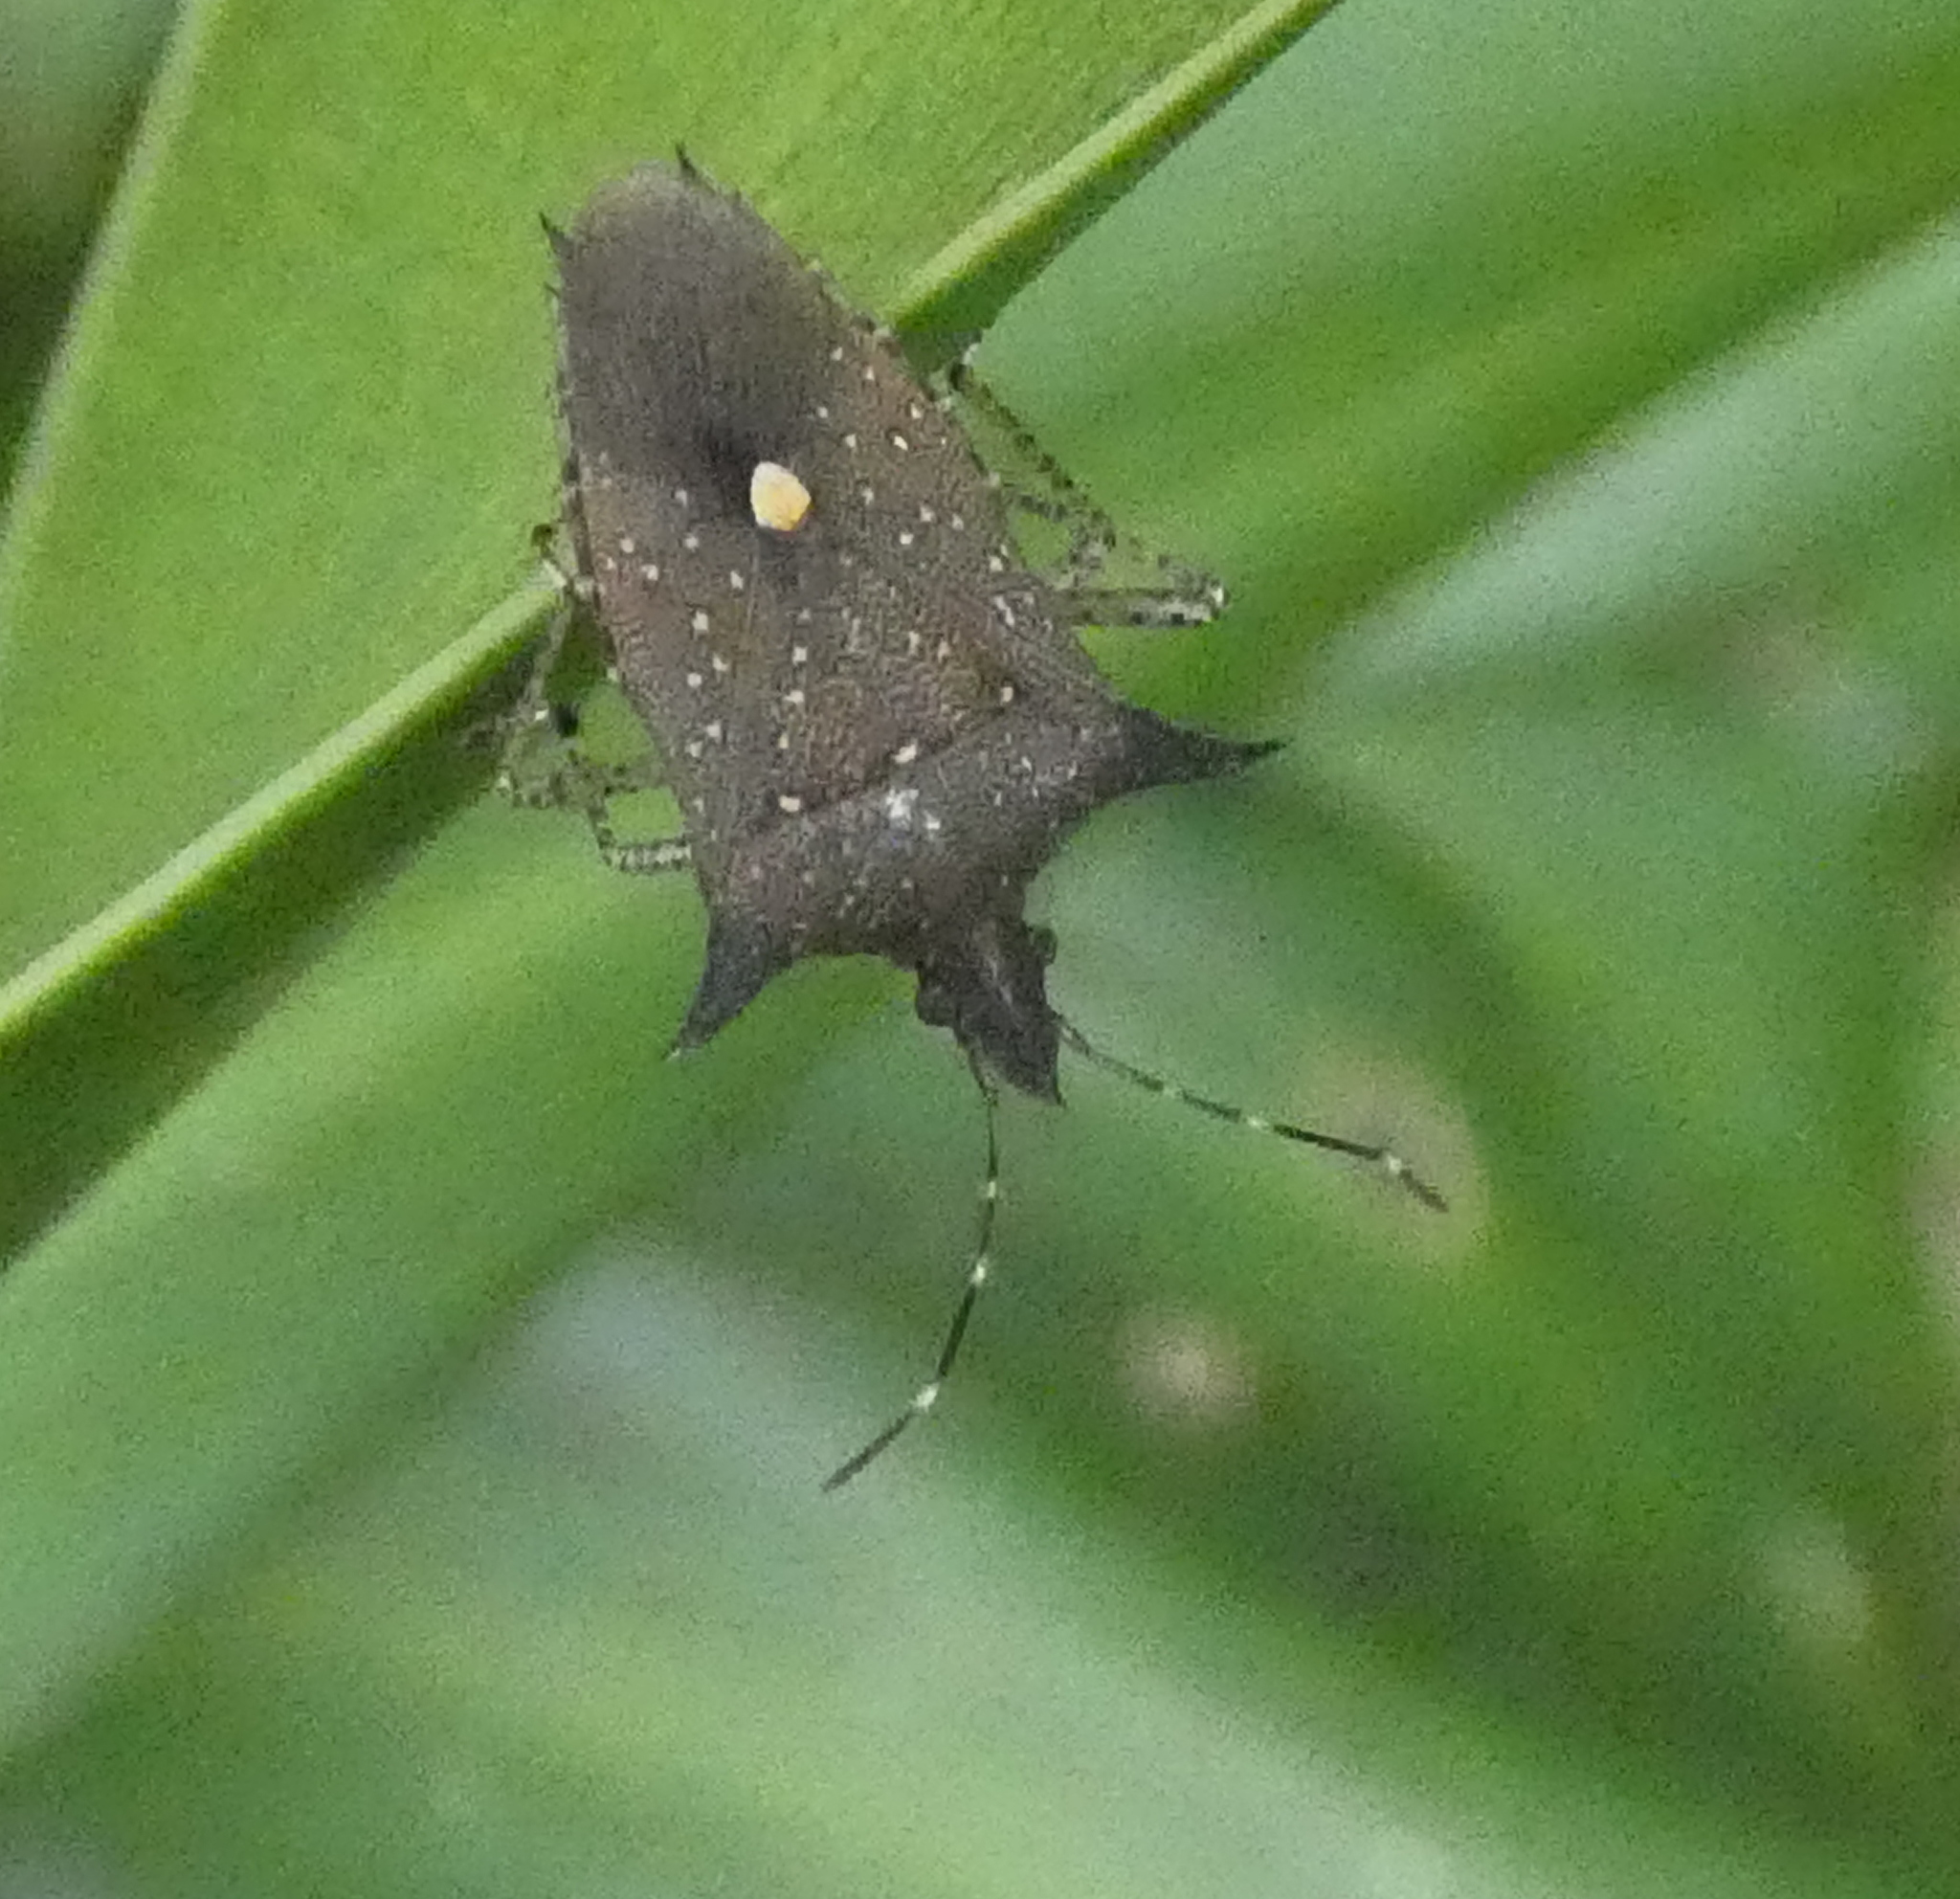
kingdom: Animalia
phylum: Arthropoda
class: Insecta
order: Hemiptera
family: Pentatomidae
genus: Proxys
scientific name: Proxys albopunctulatus
